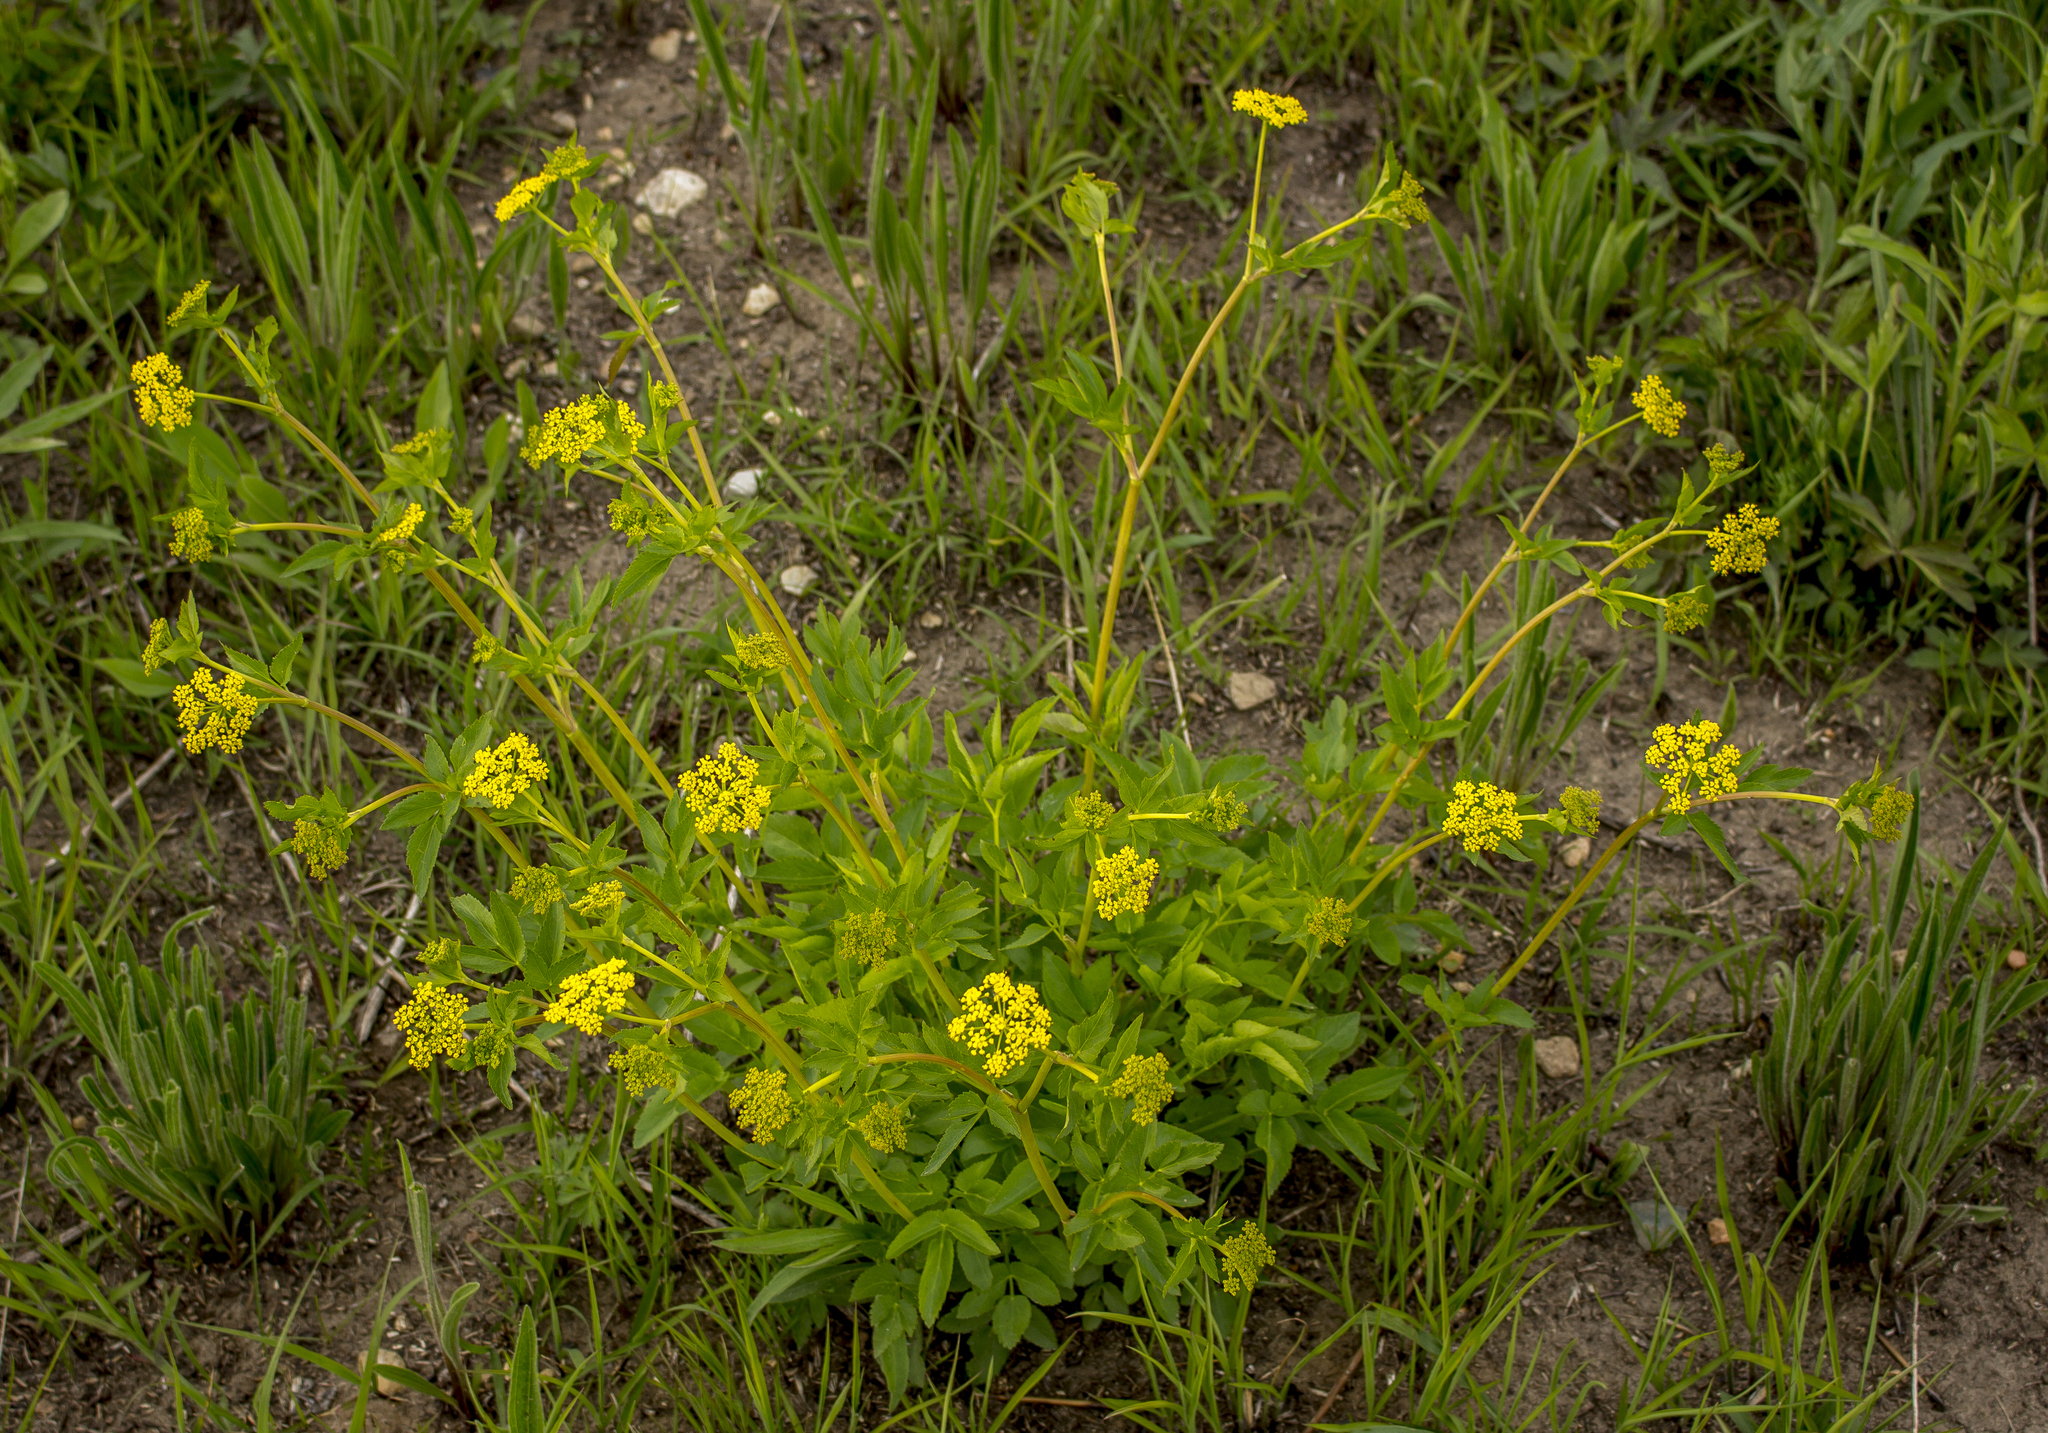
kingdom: Plantae
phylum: Tracheophyta
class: Magnoliopsida
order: Apiales
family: Apiaceae
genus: Zizia
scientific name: Zizia aurea
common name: Golden alexanders
